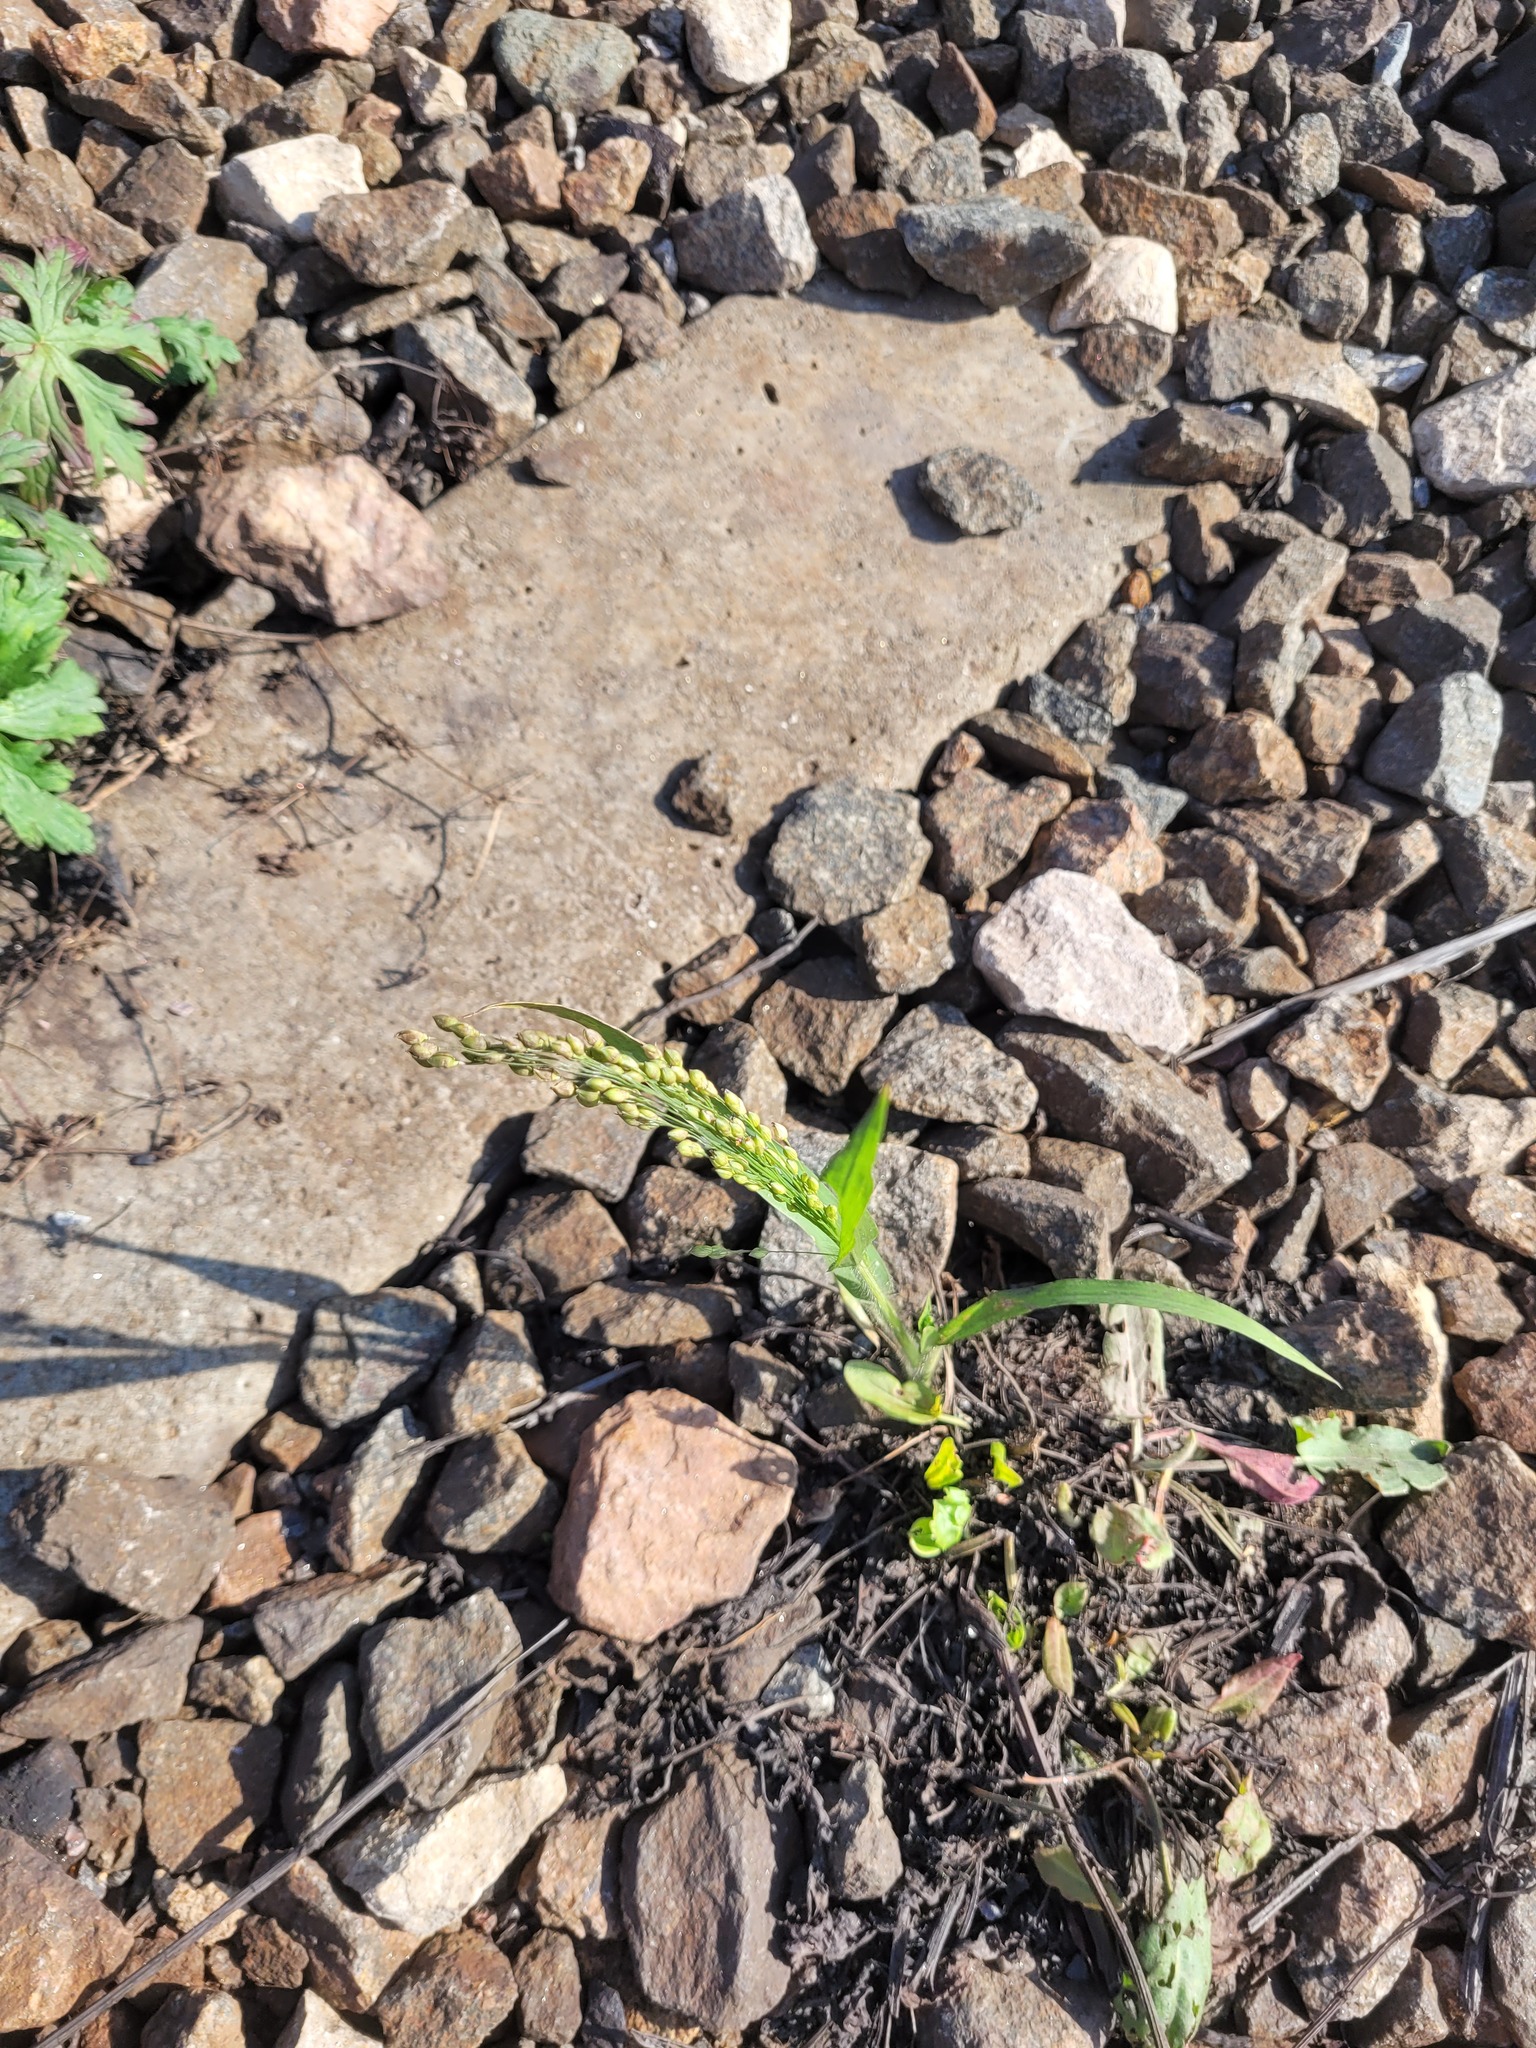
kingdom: Plantae
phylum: Tracheophyta
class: Liliopsida
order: Poales
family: Poaceae
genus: Panicum
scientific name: Panicum miliaceum
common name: Common millet
